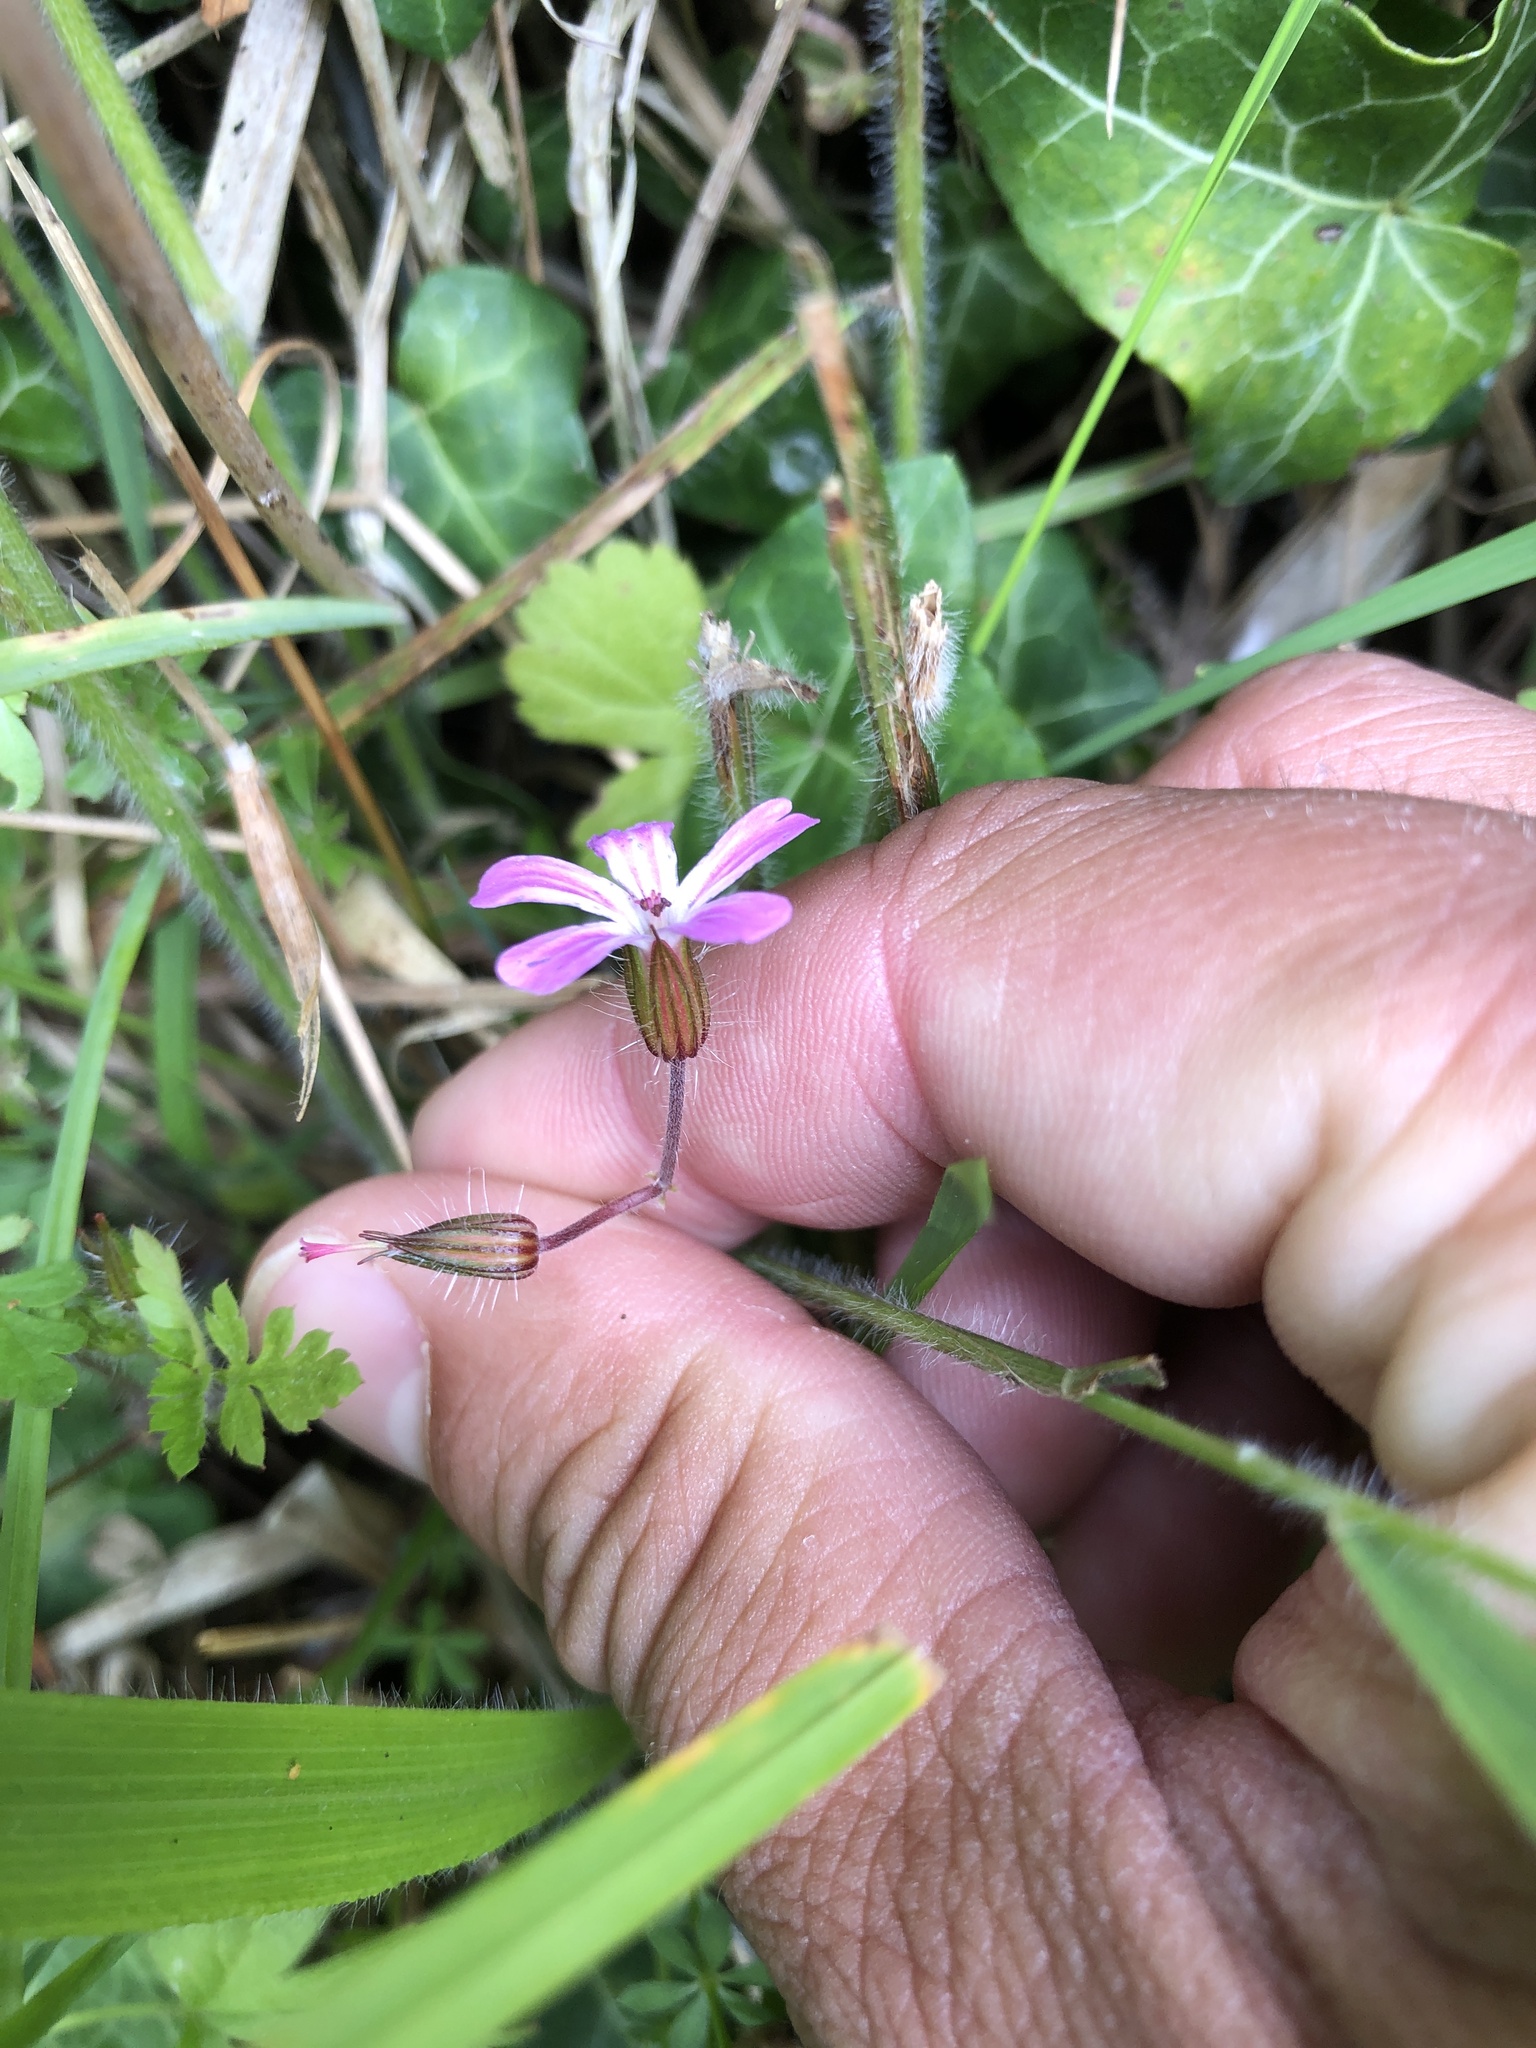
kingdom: Plantae
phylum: Tracheophyta
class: Magnoliopsida
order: Geraniales
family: Geraniaceae
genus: Geranium
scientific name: Geranium robertianum
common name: Herb-robert
